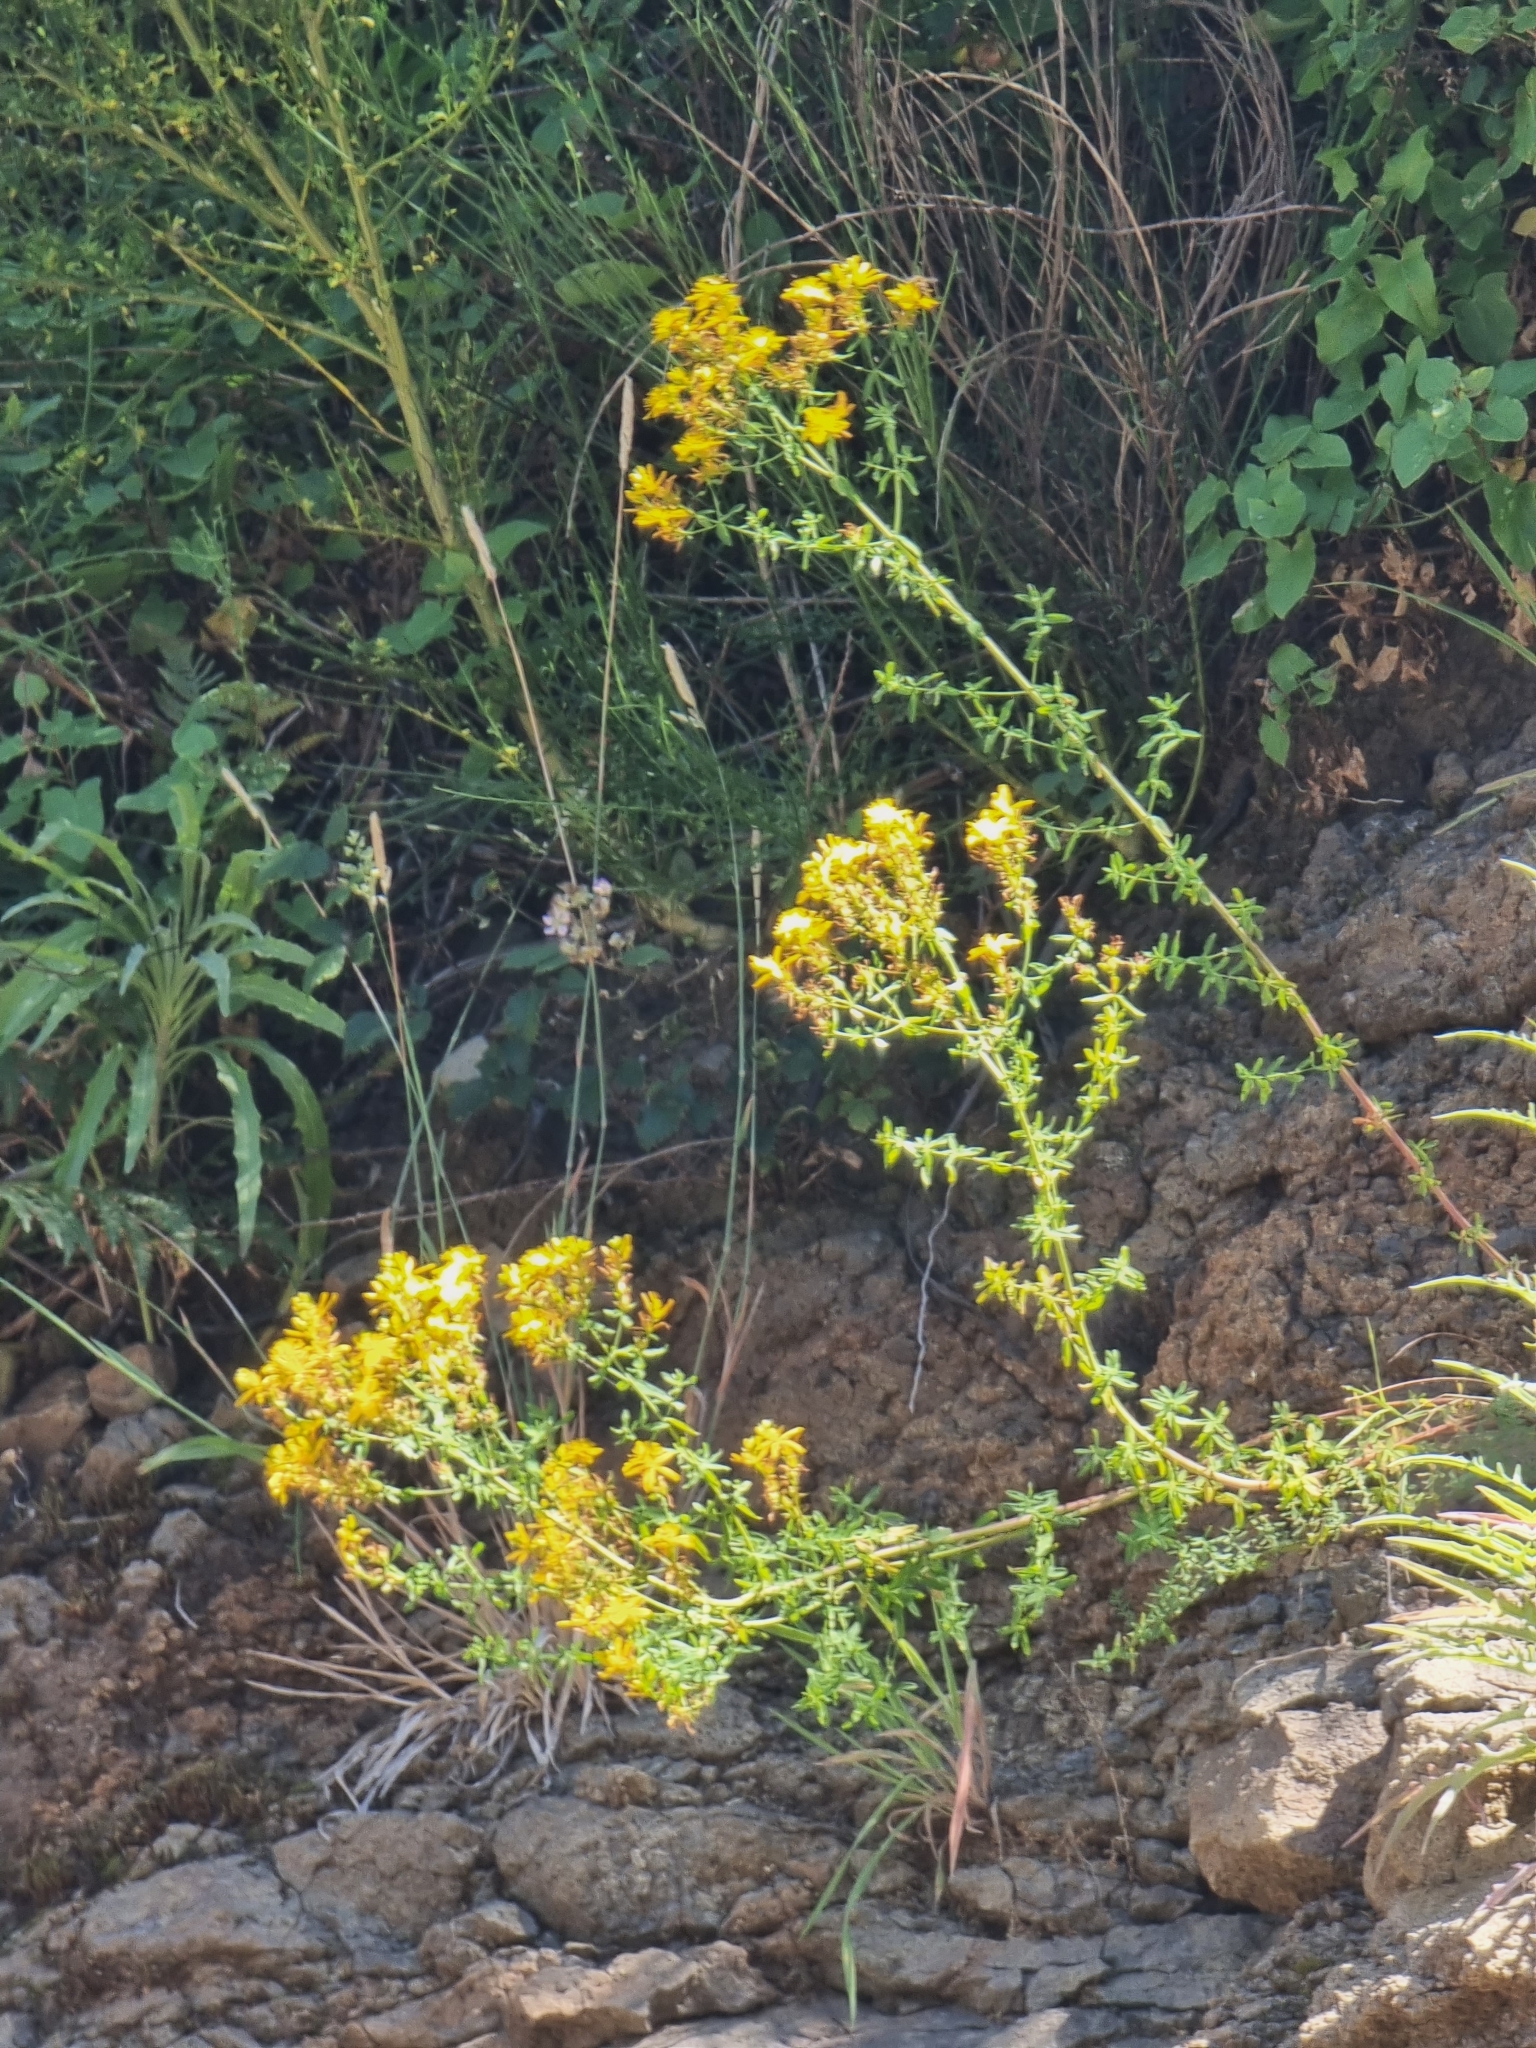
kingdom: Plantae
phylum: Tracheophyta
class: Magnoliopsida
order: Malpighiales
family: Hypericaceae
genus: Hypericum
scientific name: Hypericum perforatum
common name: Common st. johnswort
